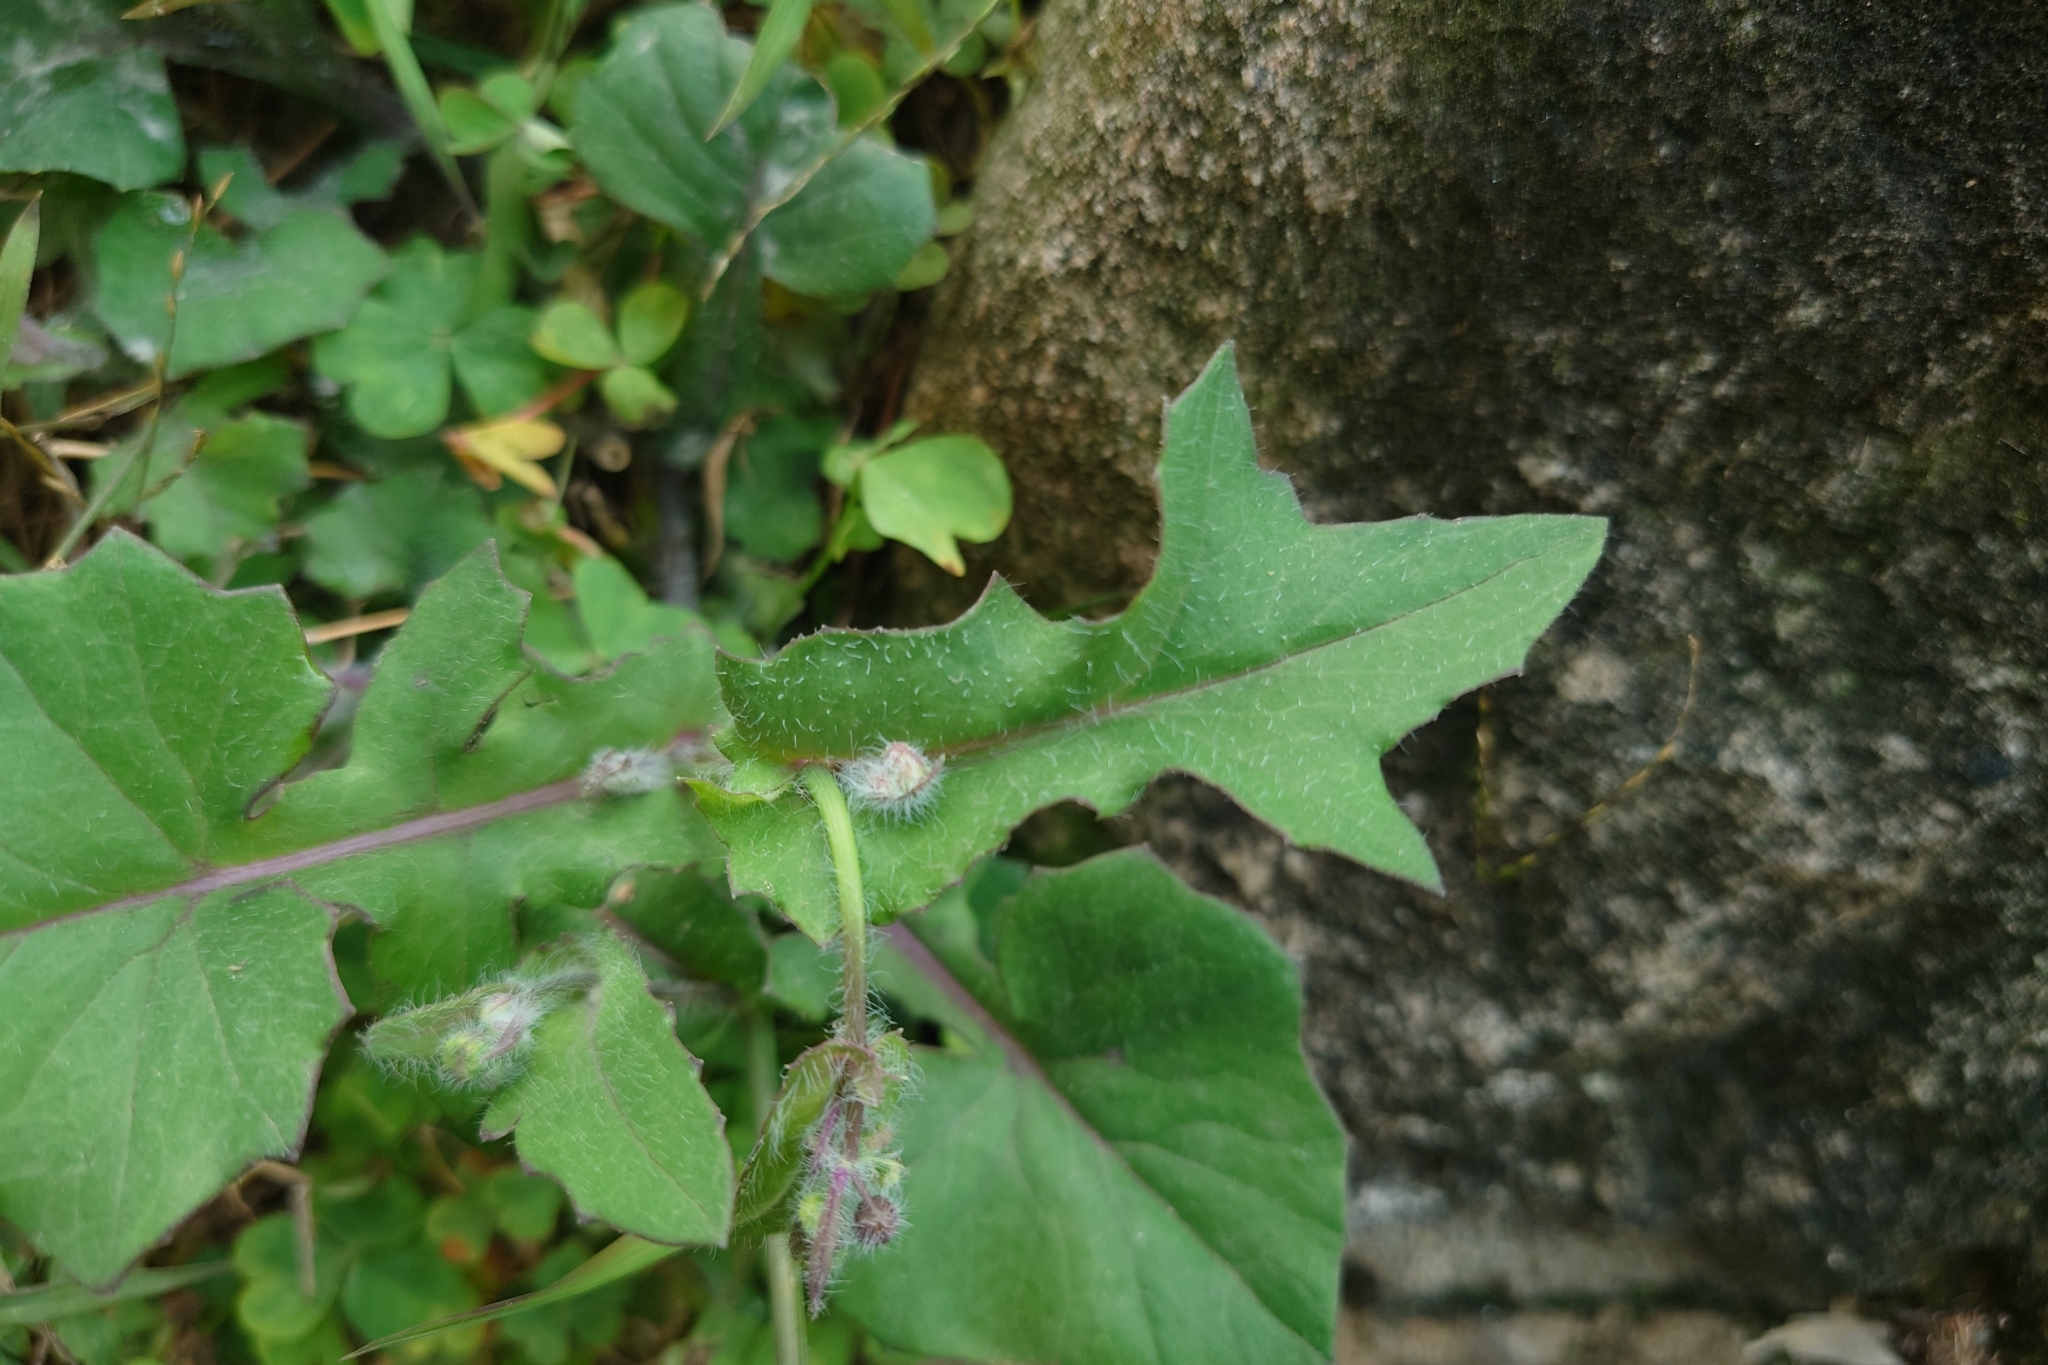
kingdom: Plantae
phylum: Tracheophyta
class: Magnoliopsida
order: Asterales
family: Asteraceae
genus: Emilia
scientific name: Emilia javanica
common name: Tassel-flower
